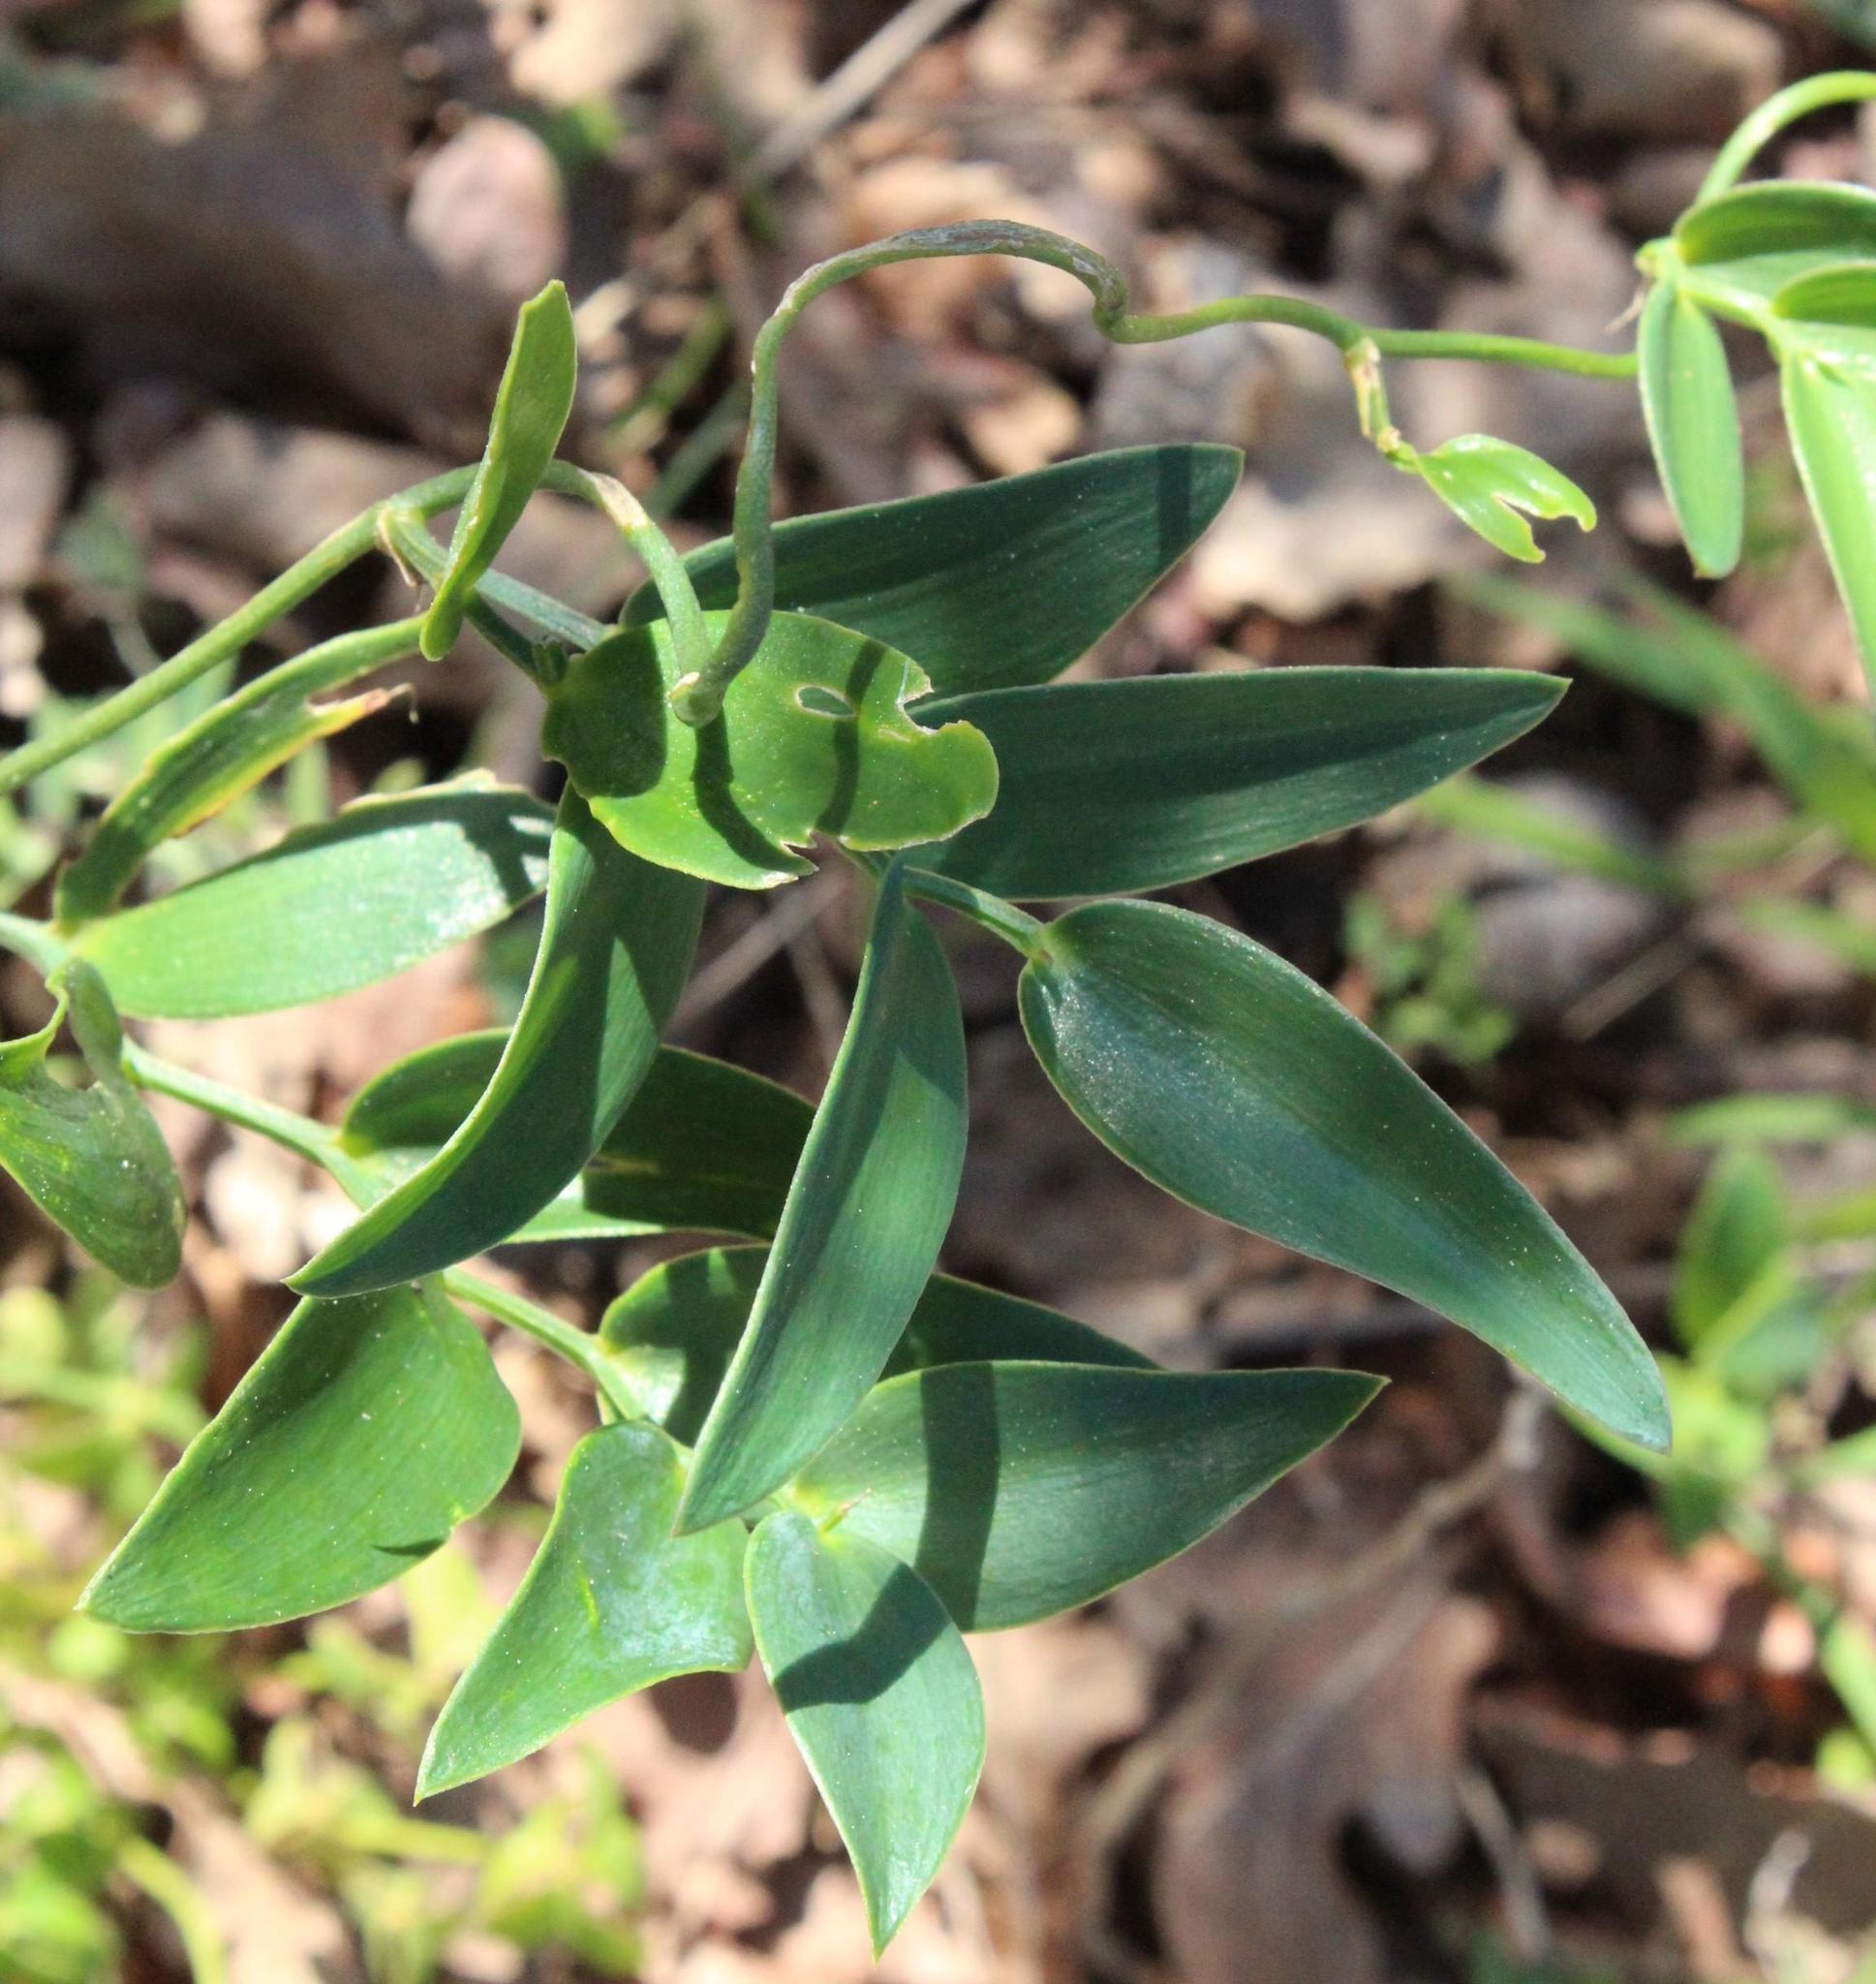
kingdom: Plantae
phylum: Tracheophyta
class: Liliopsida
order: Asparagales
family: Asparagaceae
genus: Asparagus
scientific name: Asparagus asparagoides
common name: African asparagus fern
